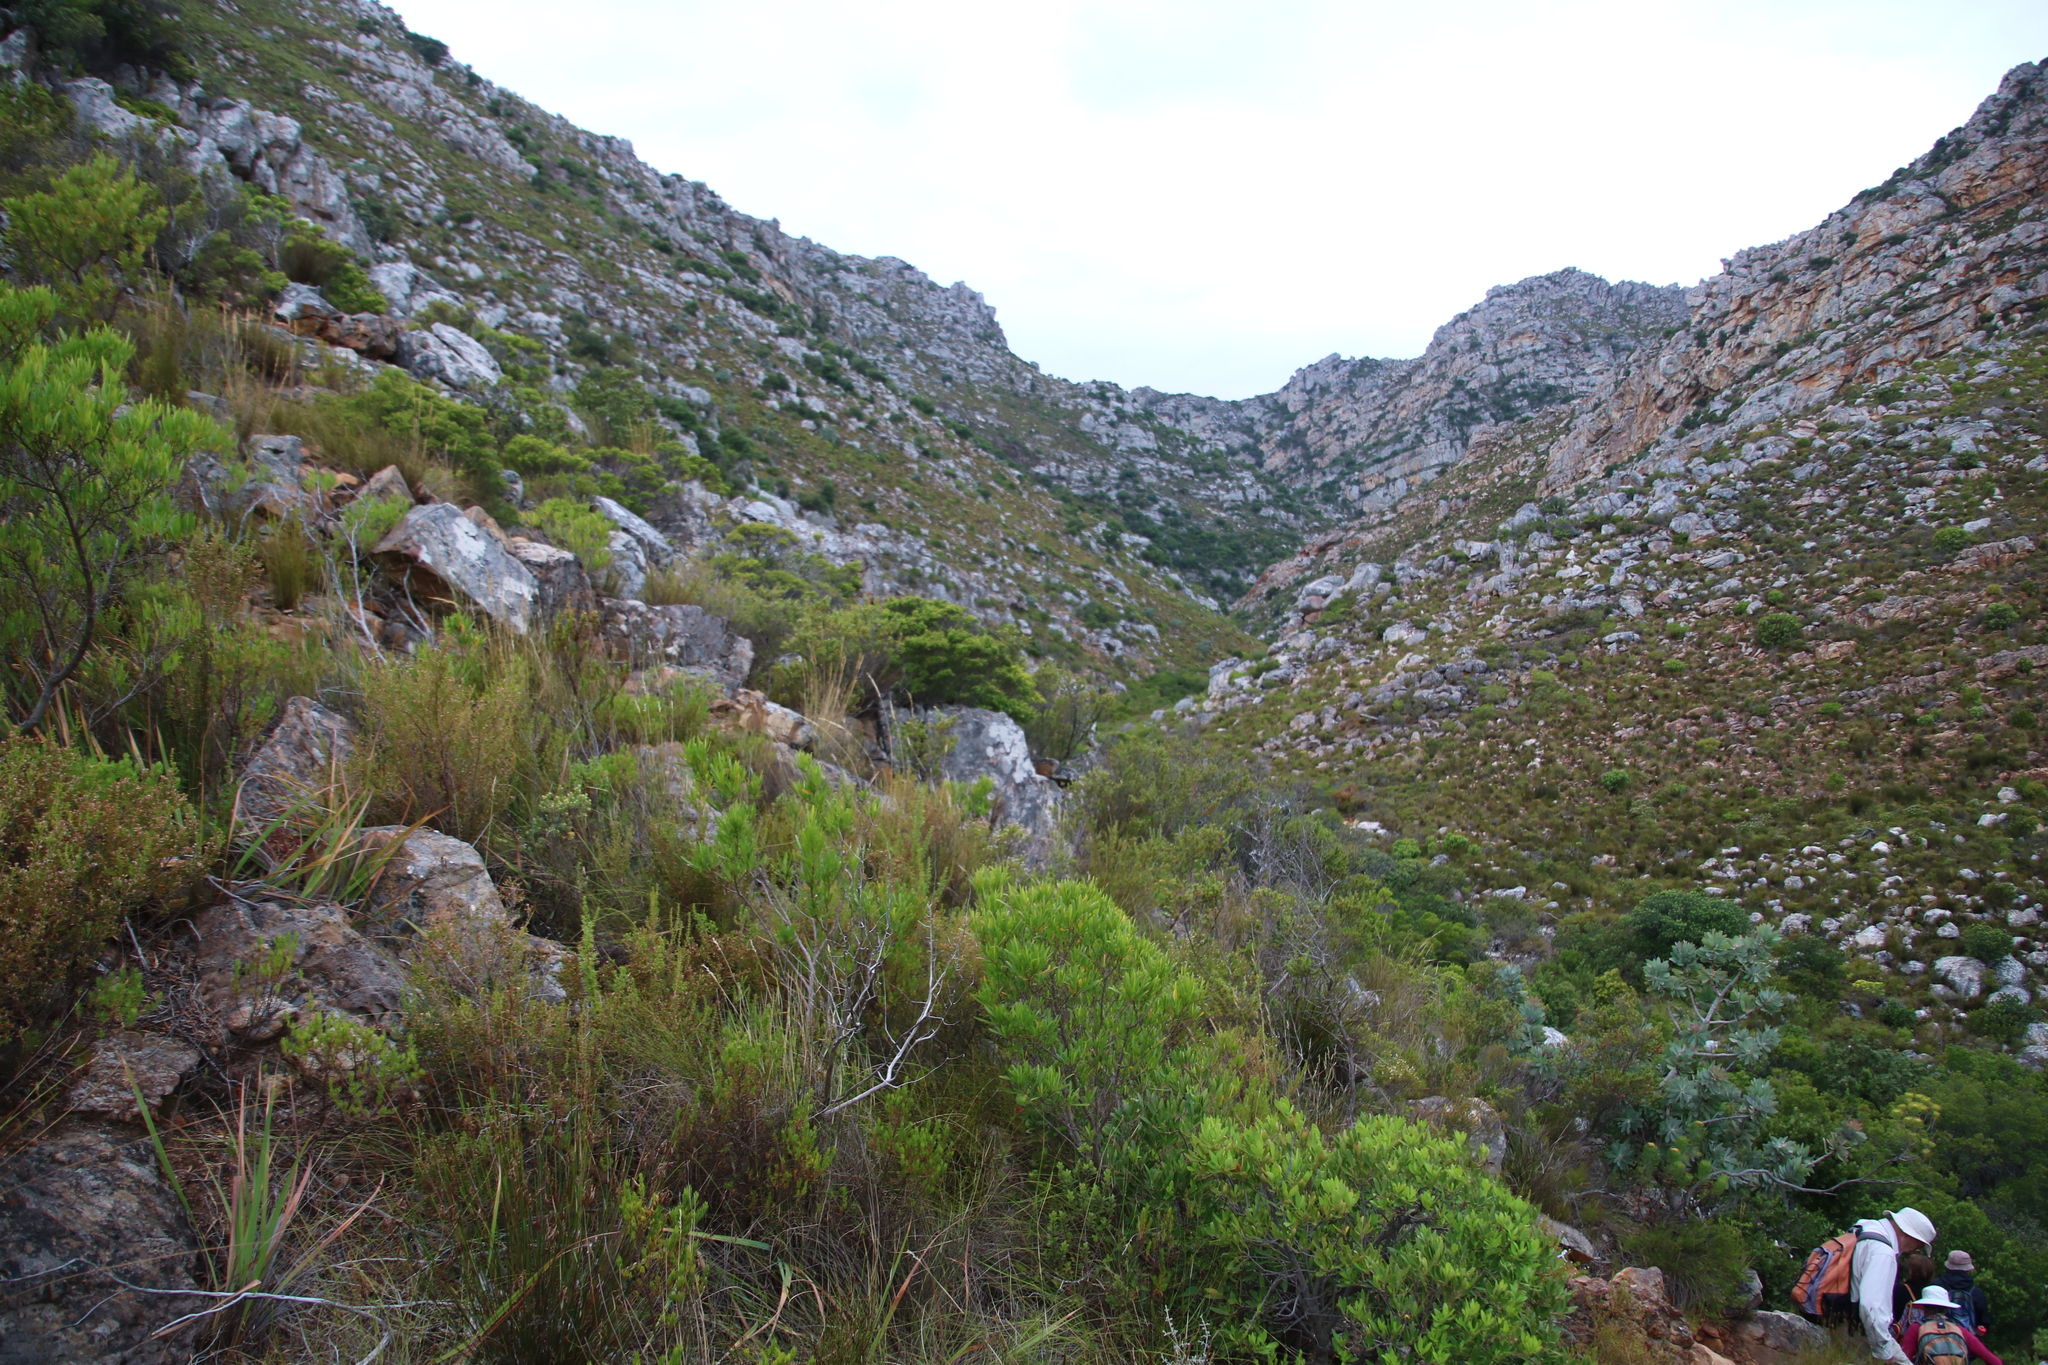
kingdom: Plantae
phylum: Tracheophyta
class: Magnoliopsida
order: Sapindales
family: Rutaceae
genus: Coleonema
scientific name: Coleonema album
